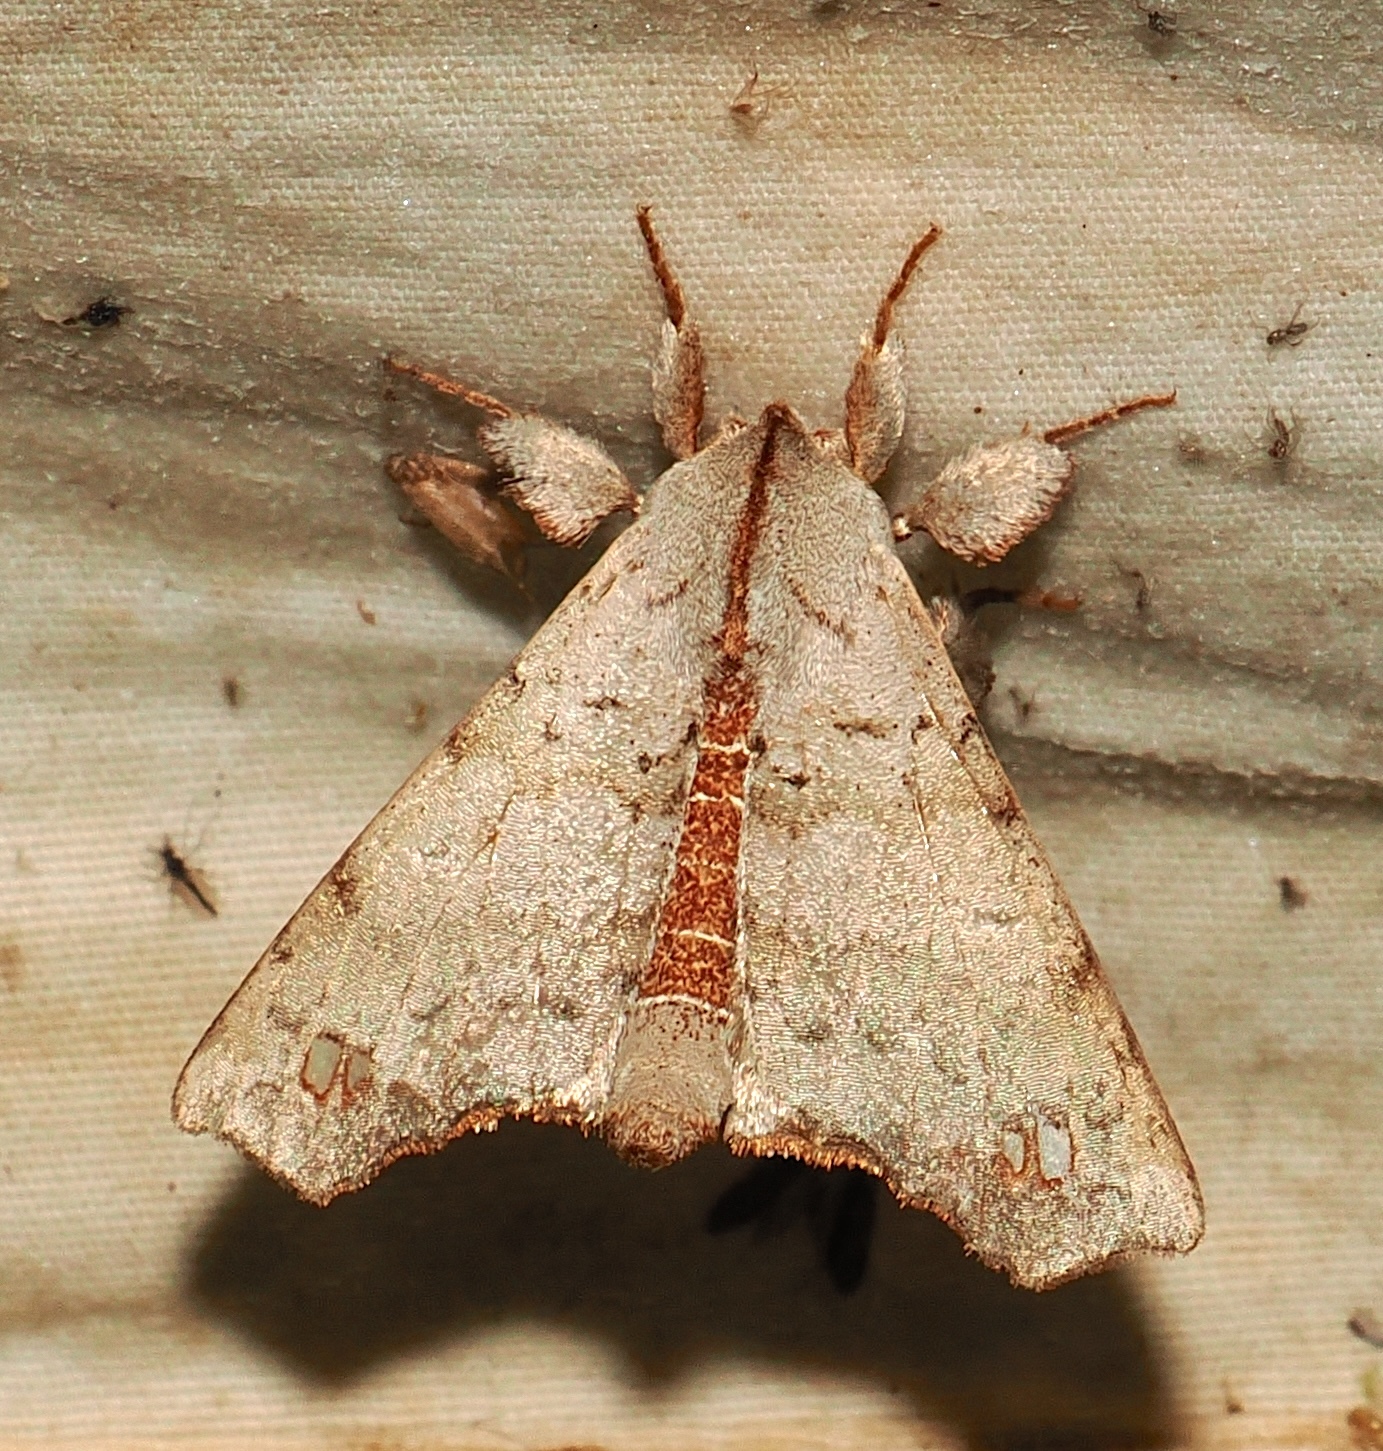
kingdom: Animalia
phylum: Arthropoda
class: Insecta
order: Lepidoptera
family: Apatelodidae
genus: Olceclostera
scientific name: Olceclostera
